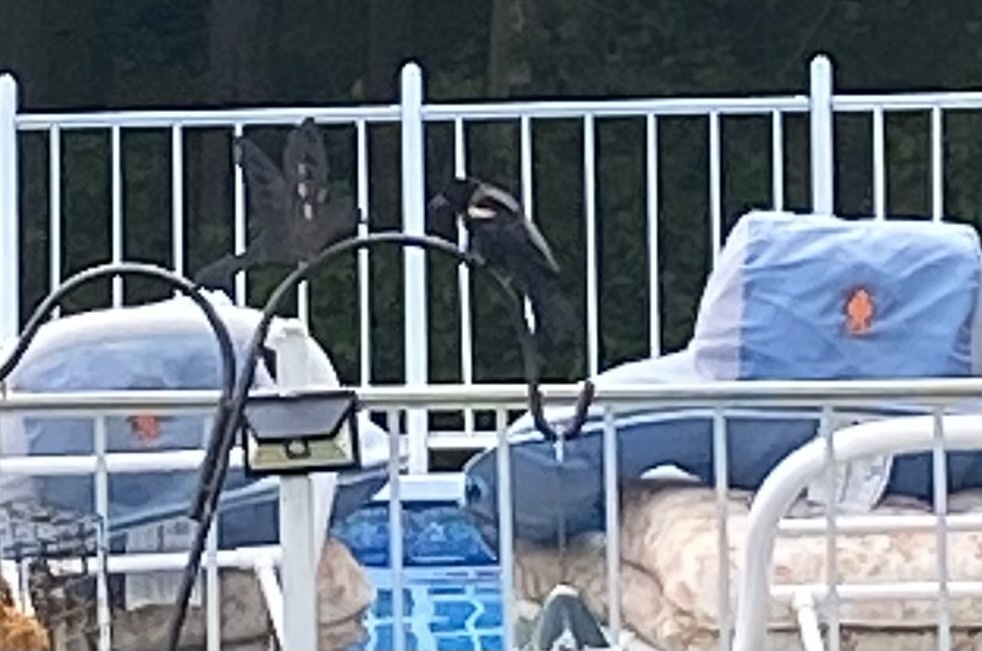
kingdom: Animalia
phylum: Chordata
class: Aves
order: Passeriformes
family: Icteridae
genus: Agelaius
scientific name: Agelaius phoeniceus
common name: Red-winged blackbird
